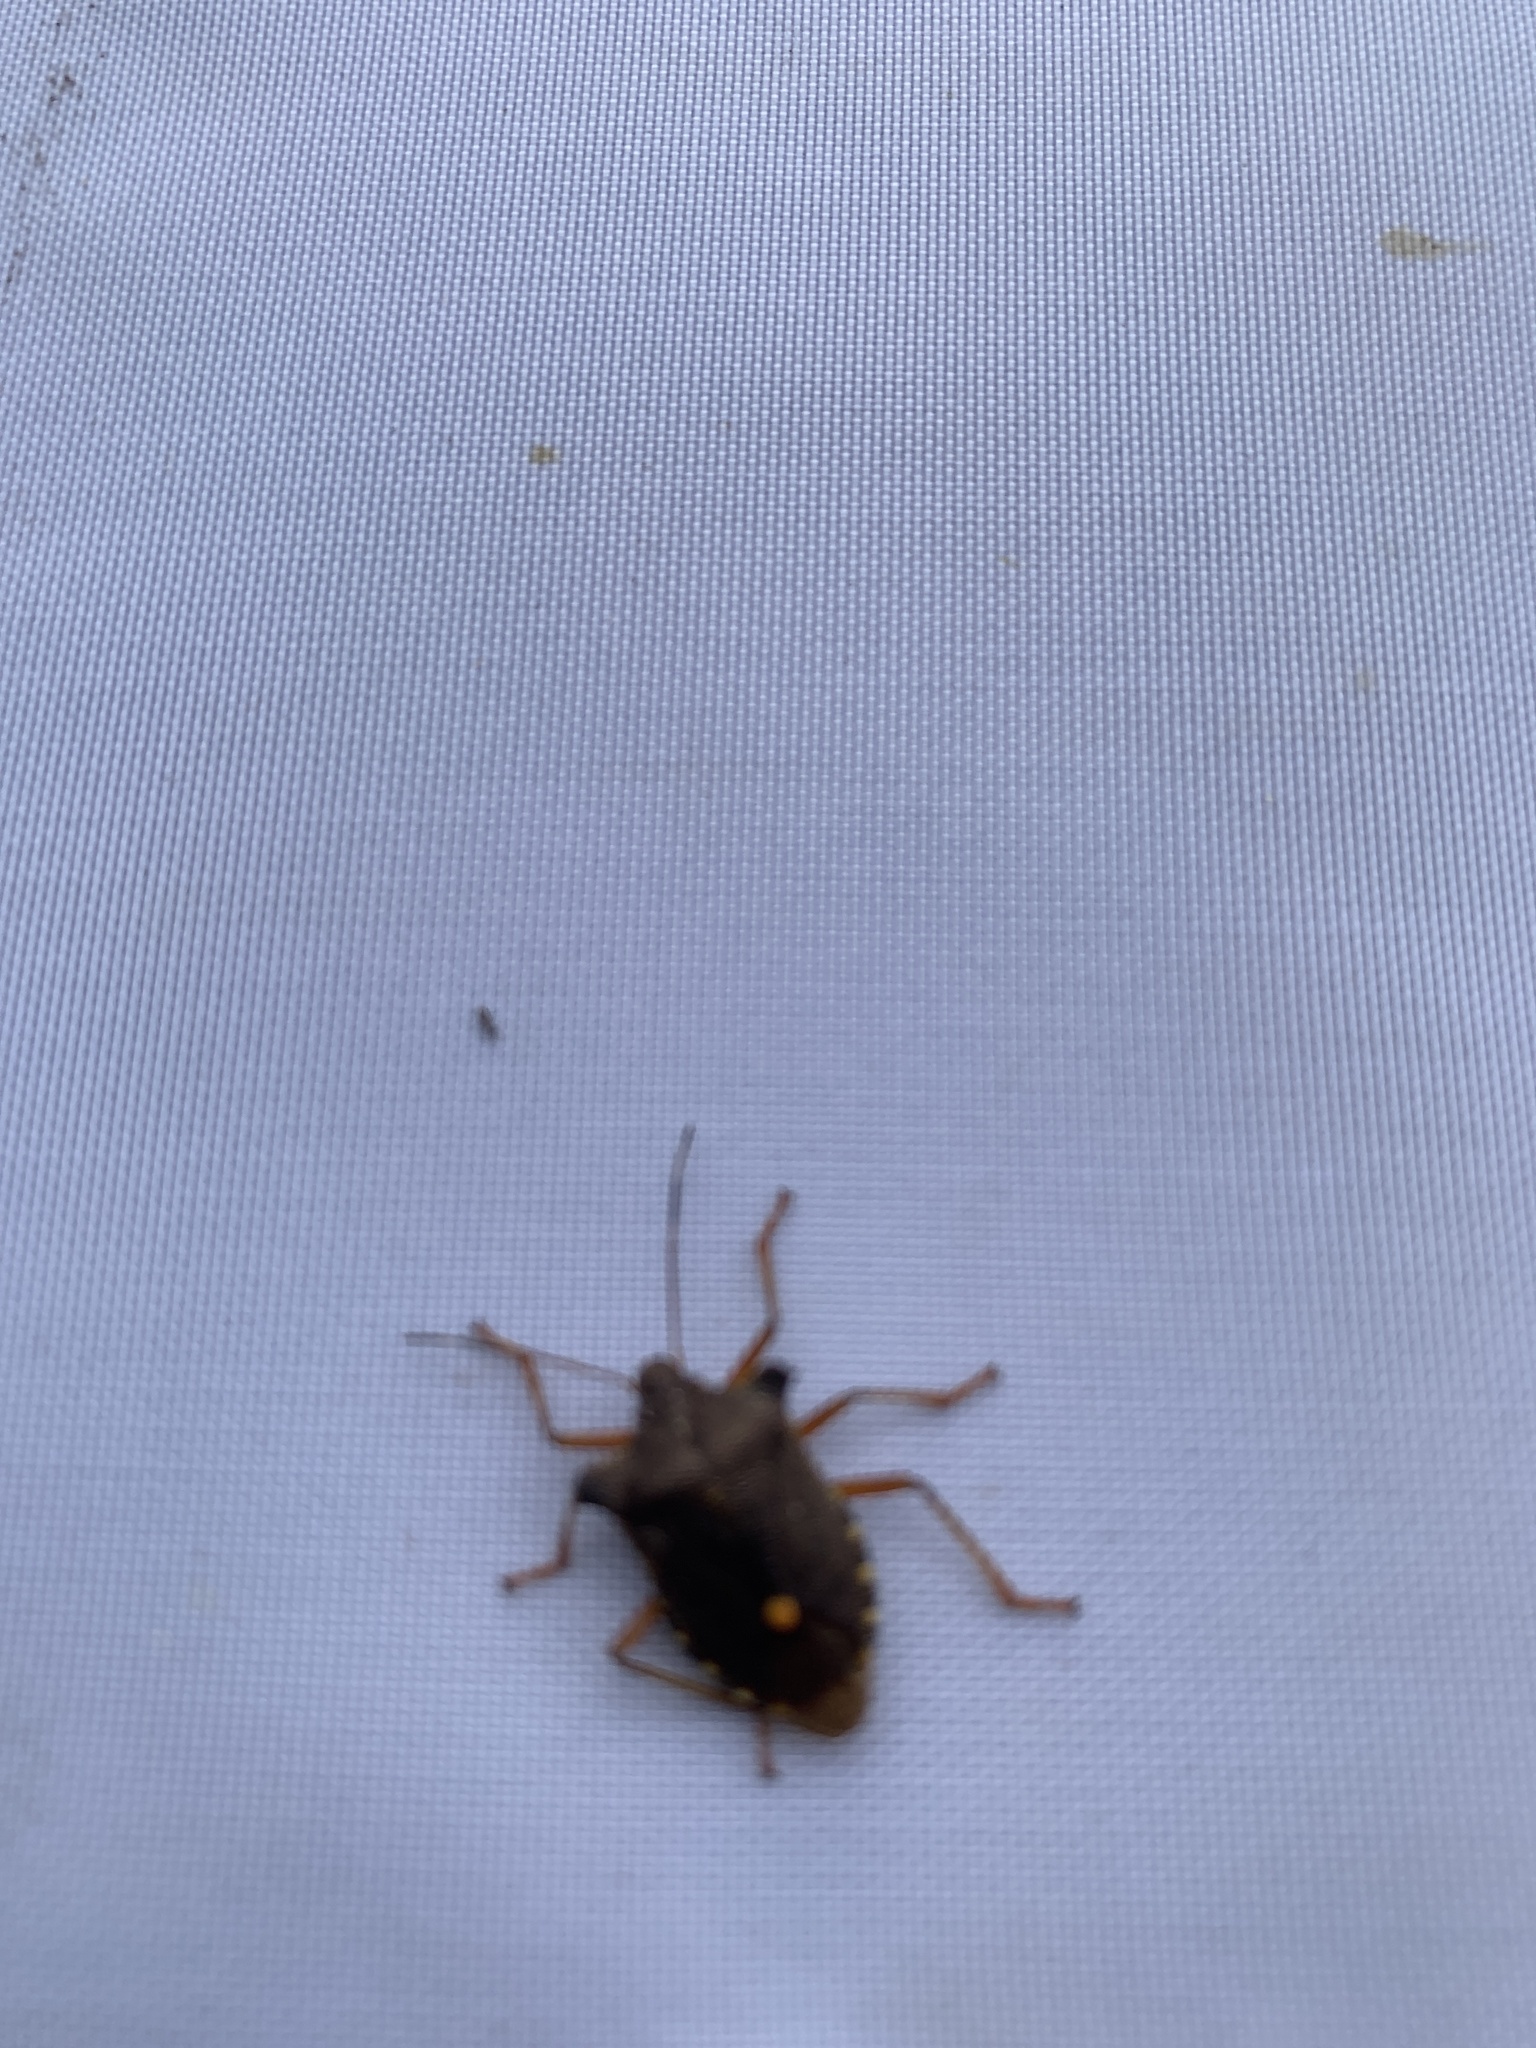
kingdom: Animalia
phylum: Arthropoda
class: Insecta
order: Hemiptera
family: Pentatomidae
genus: Pentatoma
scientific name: Pentatoma rufipes
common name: Forest bug
